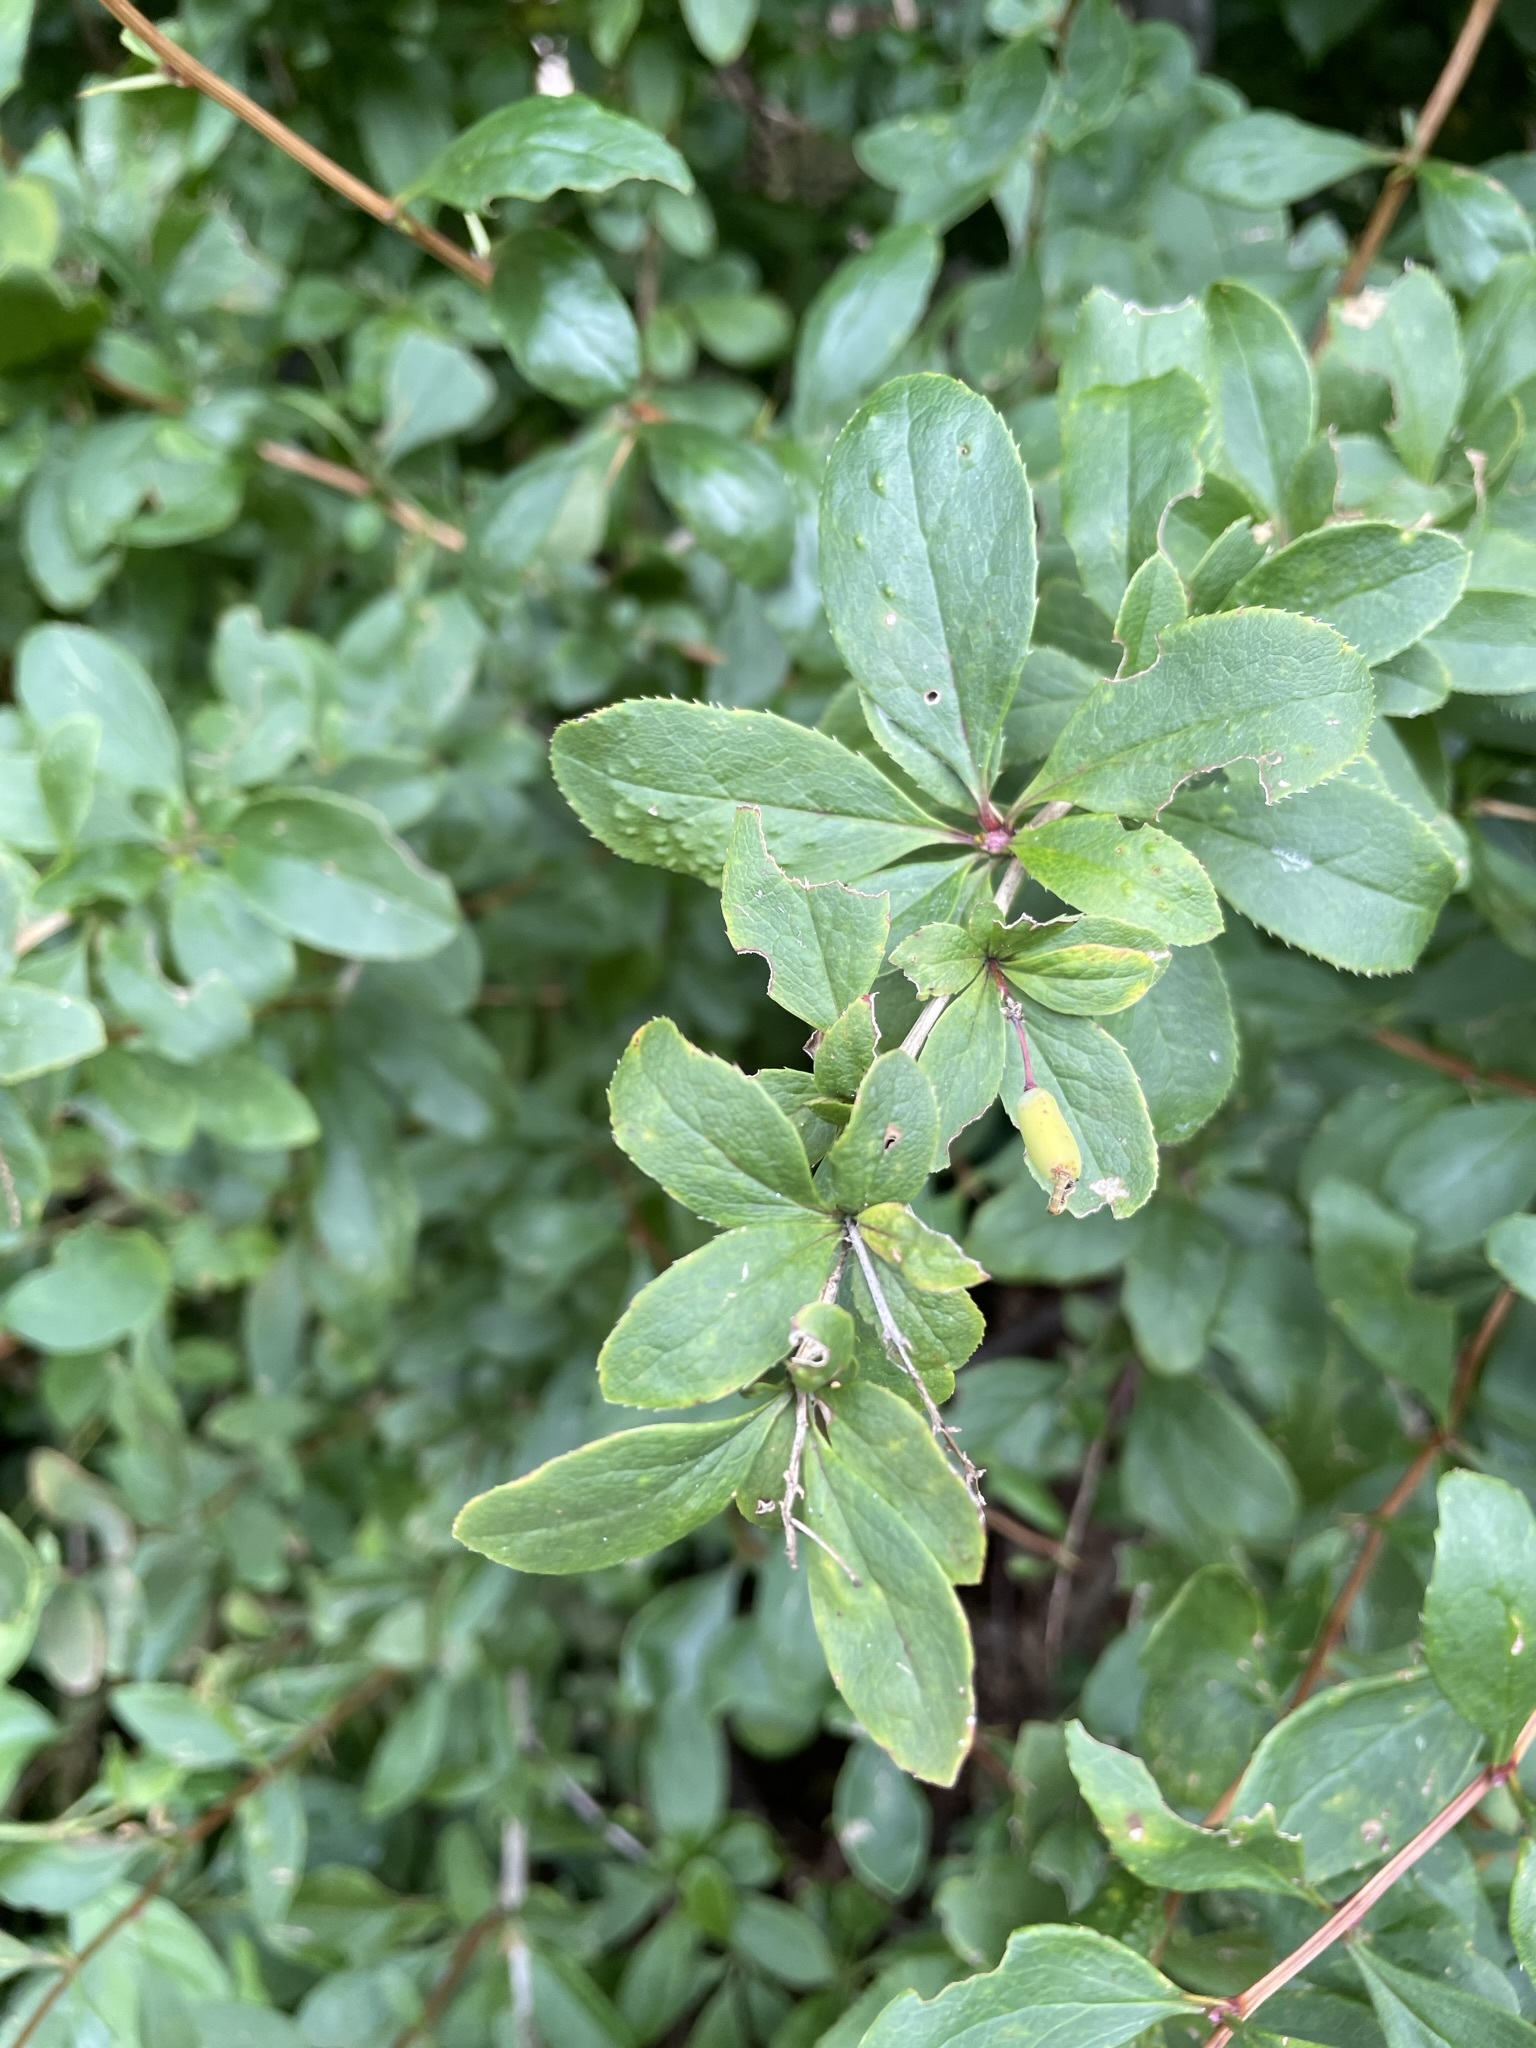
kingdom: Plantae
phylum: Tracheophyta
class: Magnoliopsida
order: Ranunculales
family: Berberidaceae
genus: Berberis
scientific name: Berberis vulgaris
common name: Barberry
